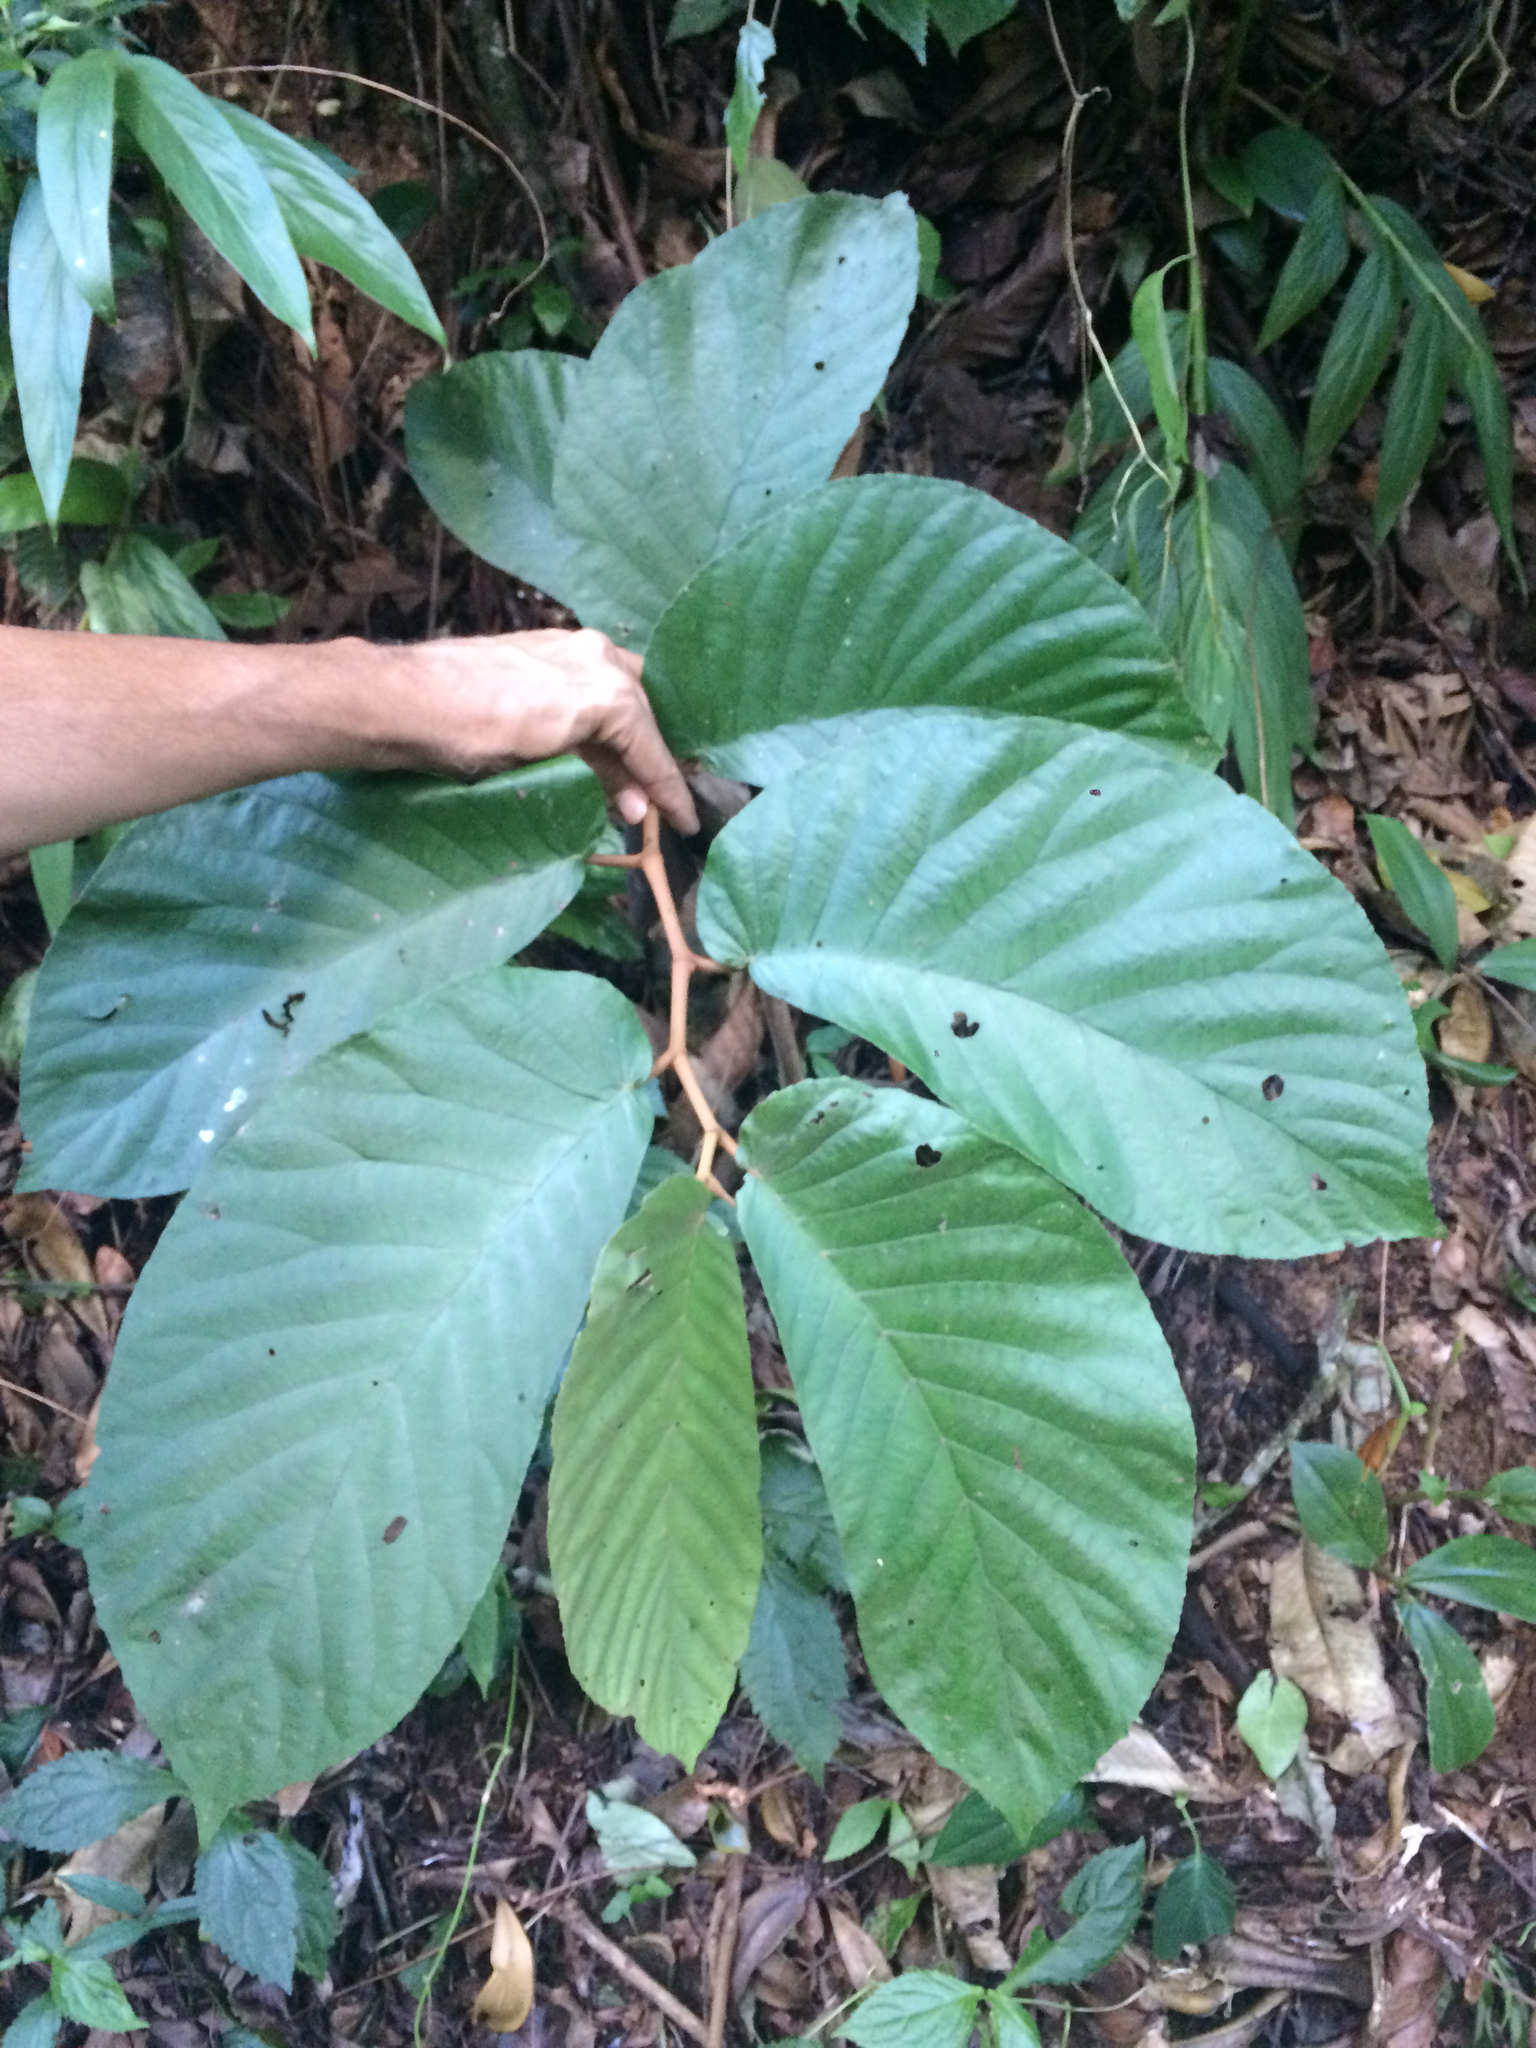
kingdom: Plantae
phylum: Tracheophyta
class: Magnoliopsida
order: Cucurbitales
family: Begoniaceae
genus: Begonia
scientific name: Begonia hookeriana
